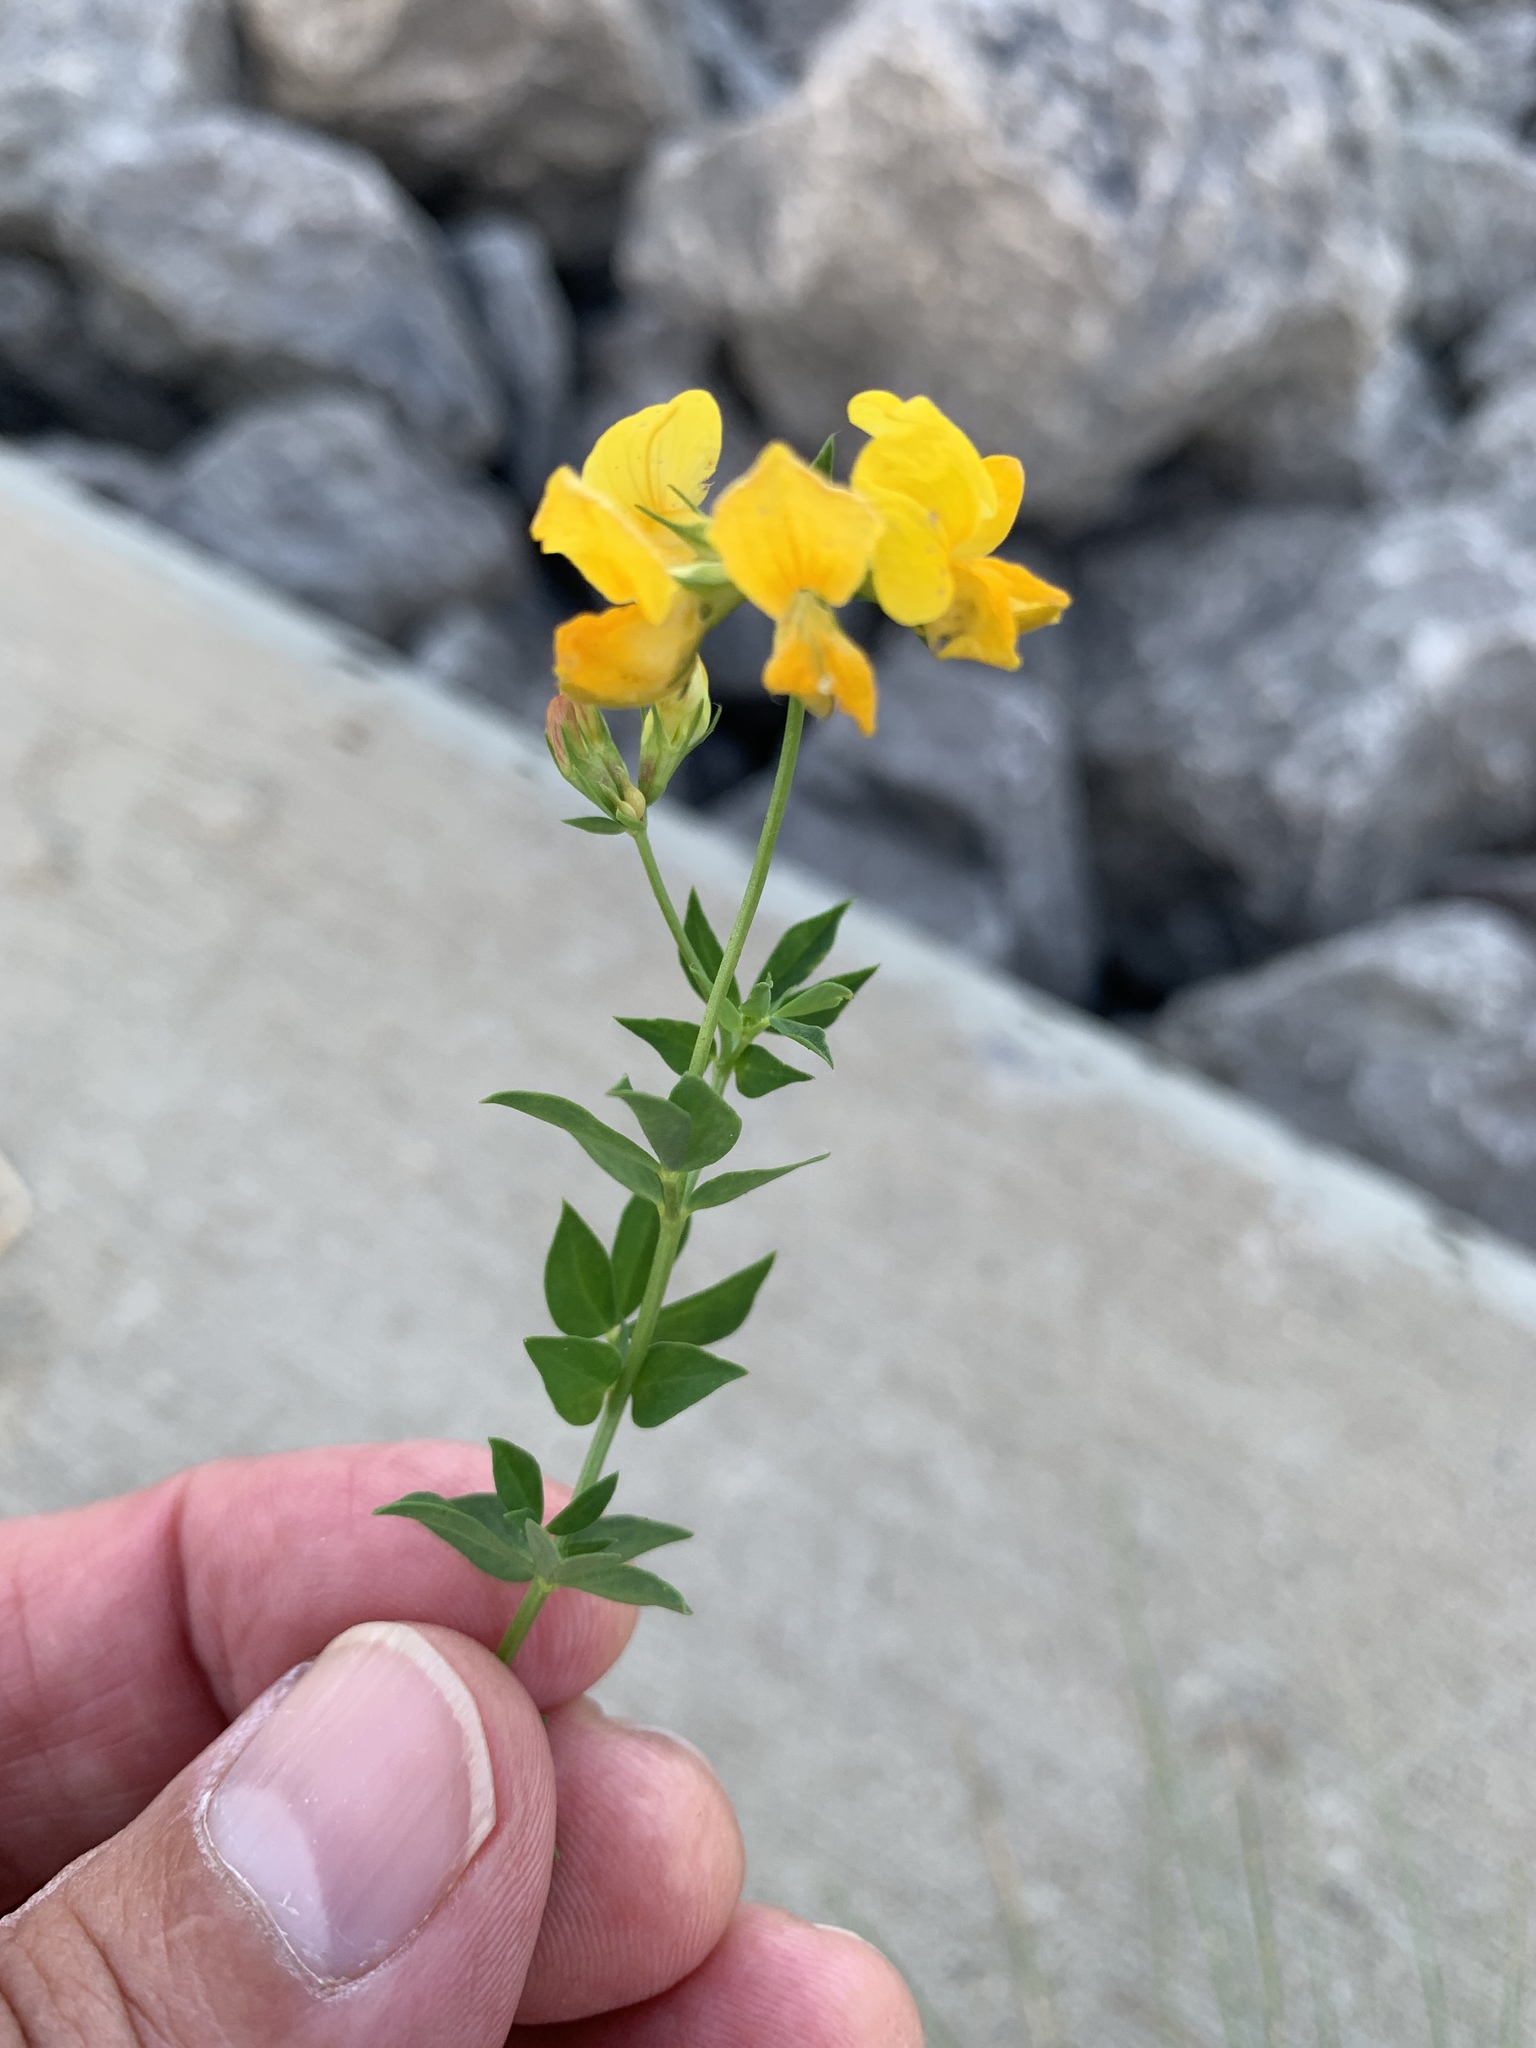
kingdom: Plantae
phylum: Tracheophyta
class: Magnoliopsida
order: Fabales
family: Fabaceae
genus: Lotus
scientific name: Lotus corniculatus
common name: Common bird's-foot-trefoil
